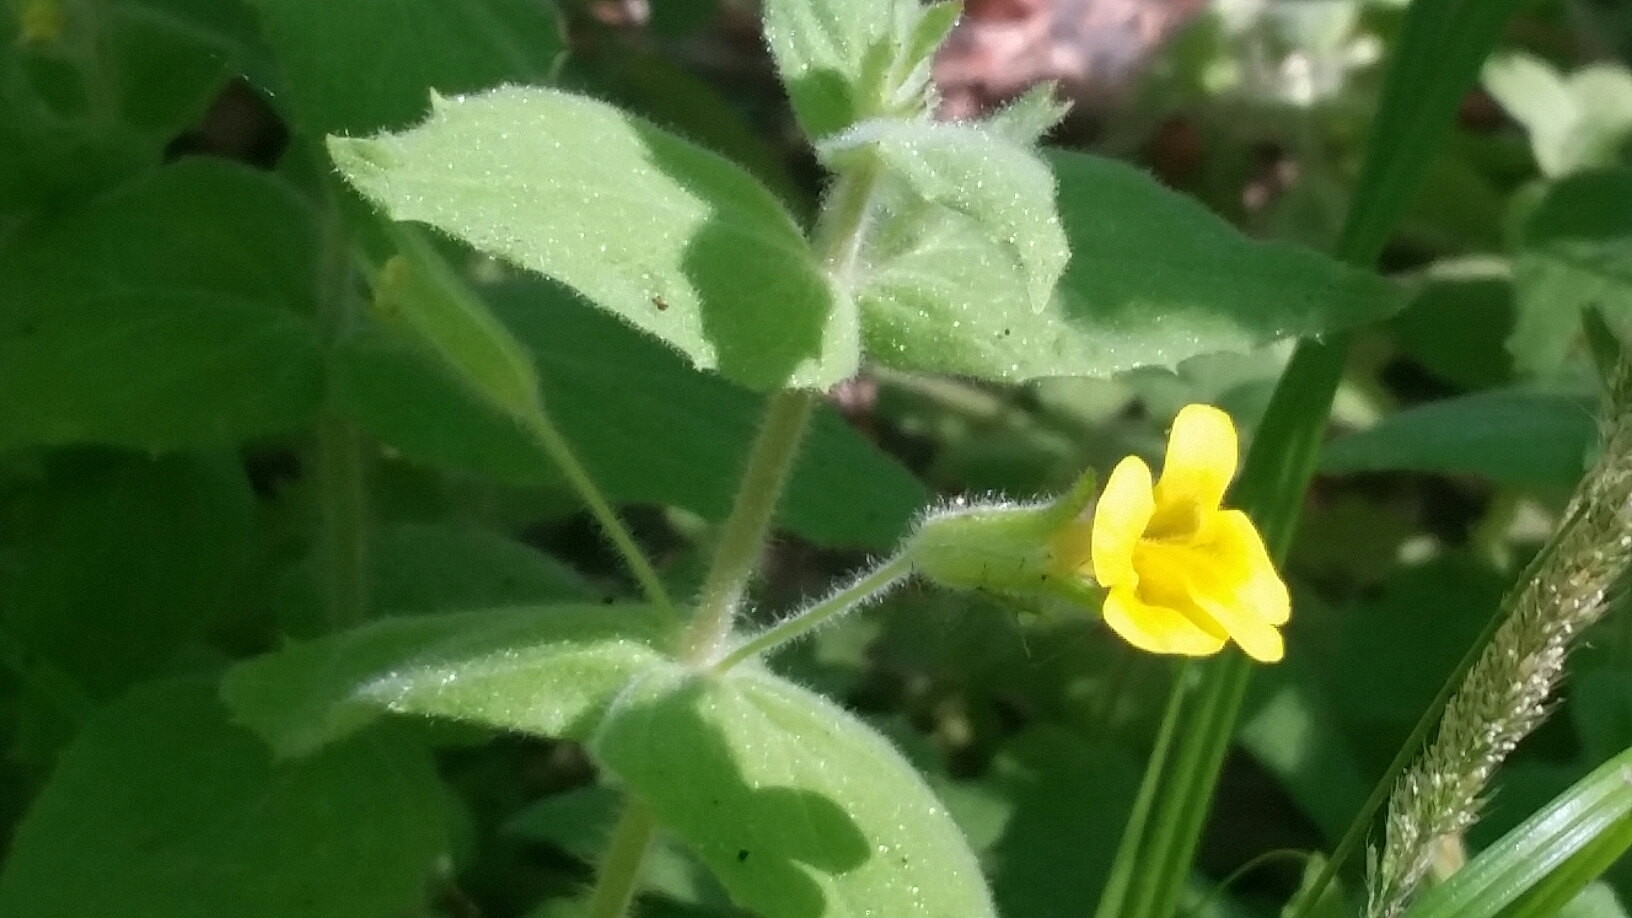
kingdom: Plantae
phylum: Tracheophyta
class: Magnoliopsida
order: Lamiales
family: Phrymaceae
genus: Erythranthe
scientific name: Erythranthe moschata
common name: Muskflower
